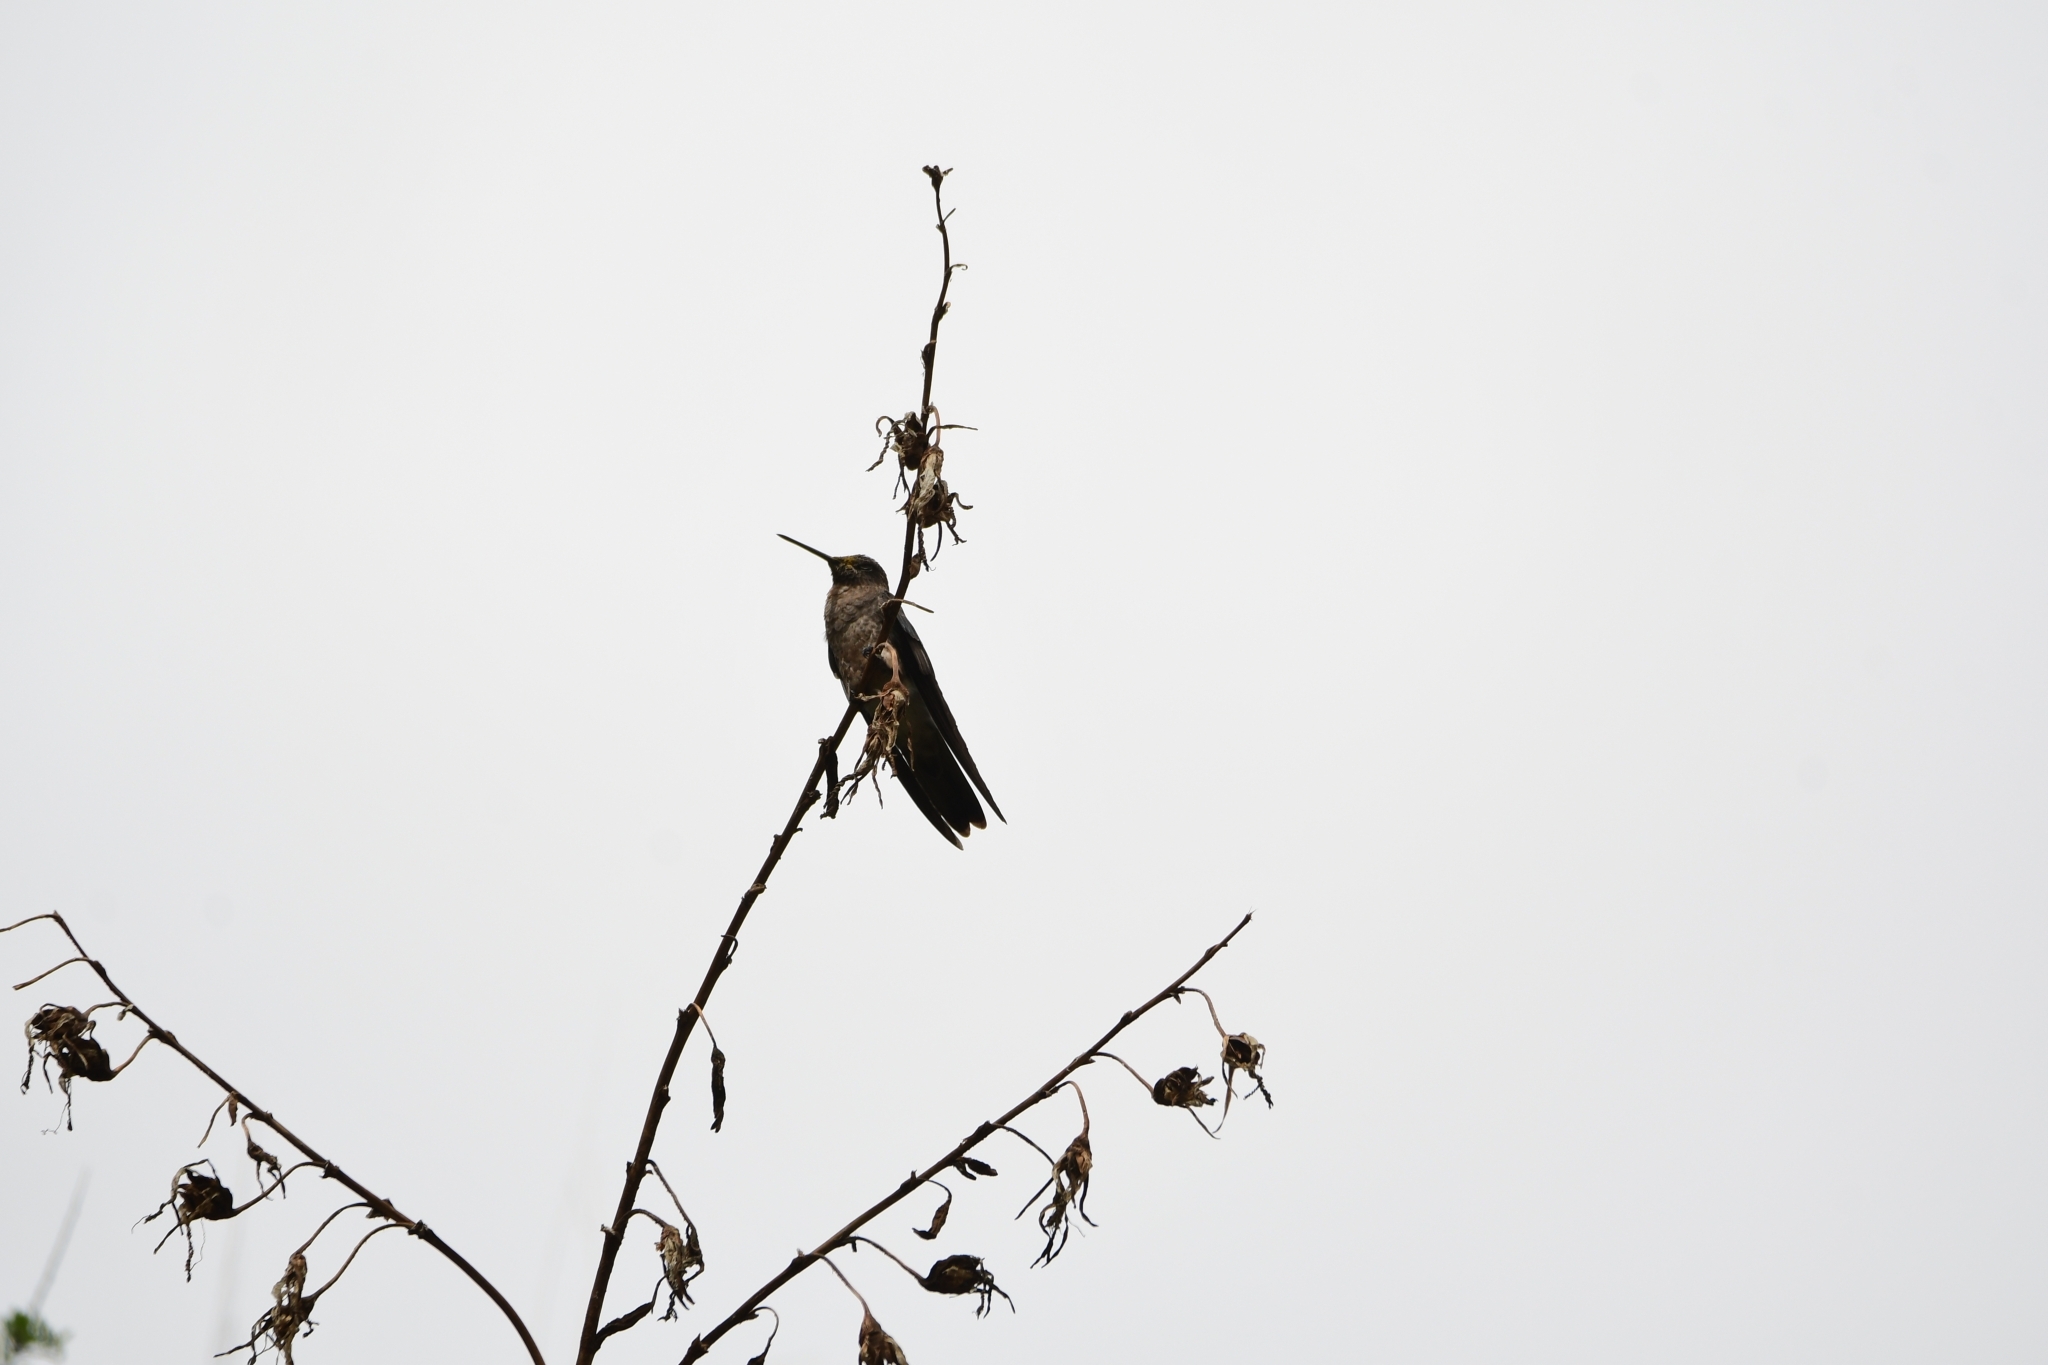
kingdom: Animalia
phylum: Chordata
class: Aves
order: Apodiformes
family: Trochilidae
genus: Patagona
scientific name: Patagona gigas
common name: Giant hummingbird
